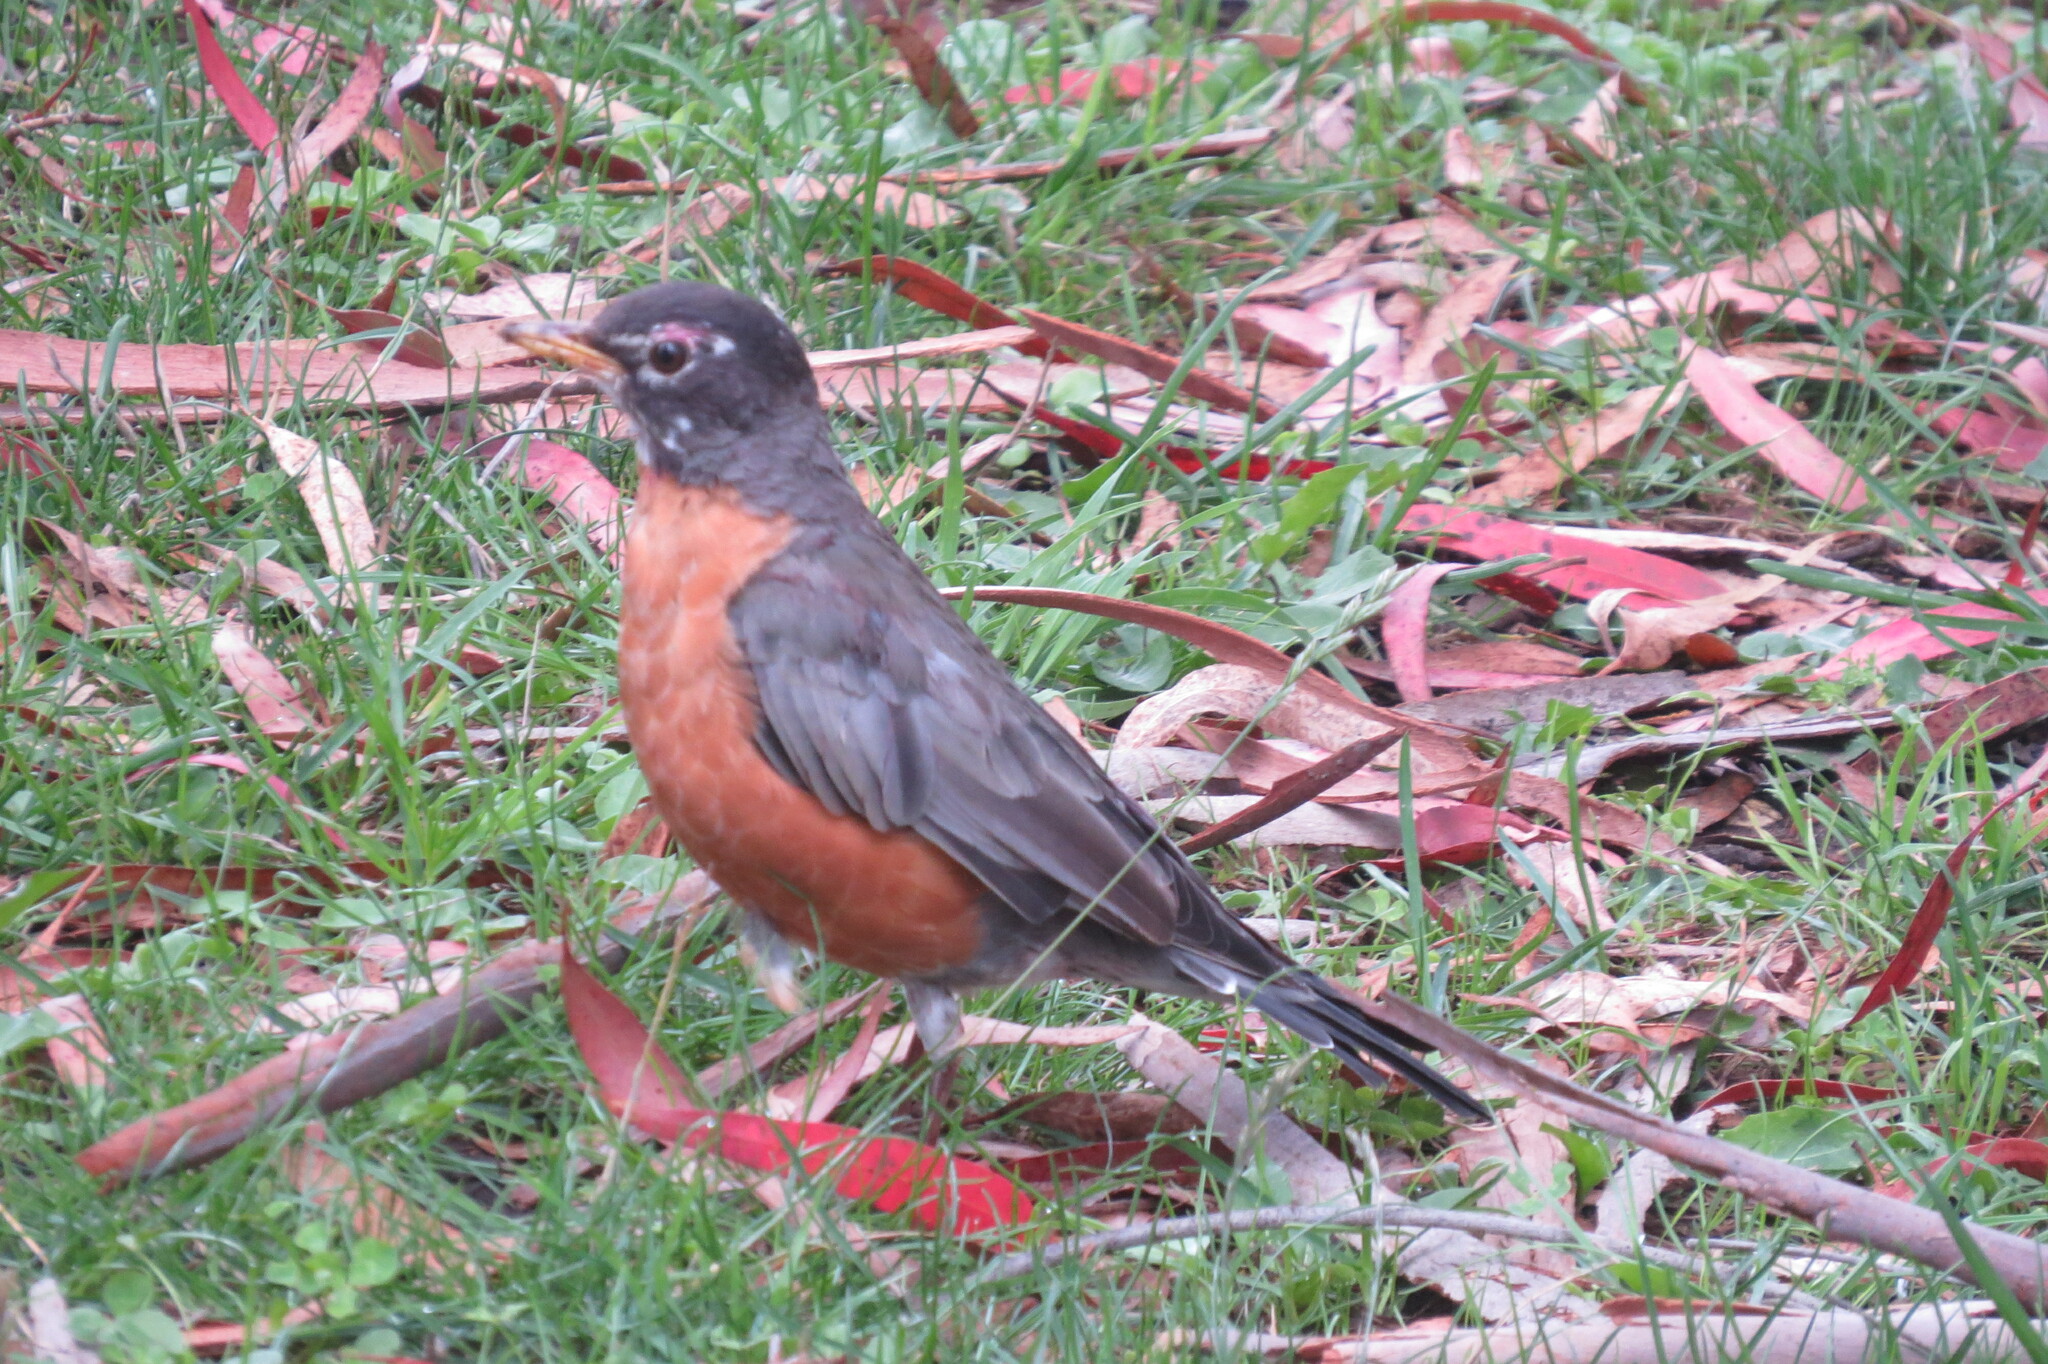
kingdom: Animalia
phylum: Chordata
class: Aves
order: Passeriformes
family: Turdidae
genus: Turdus
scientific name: Turdus migratorius
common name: American robin
